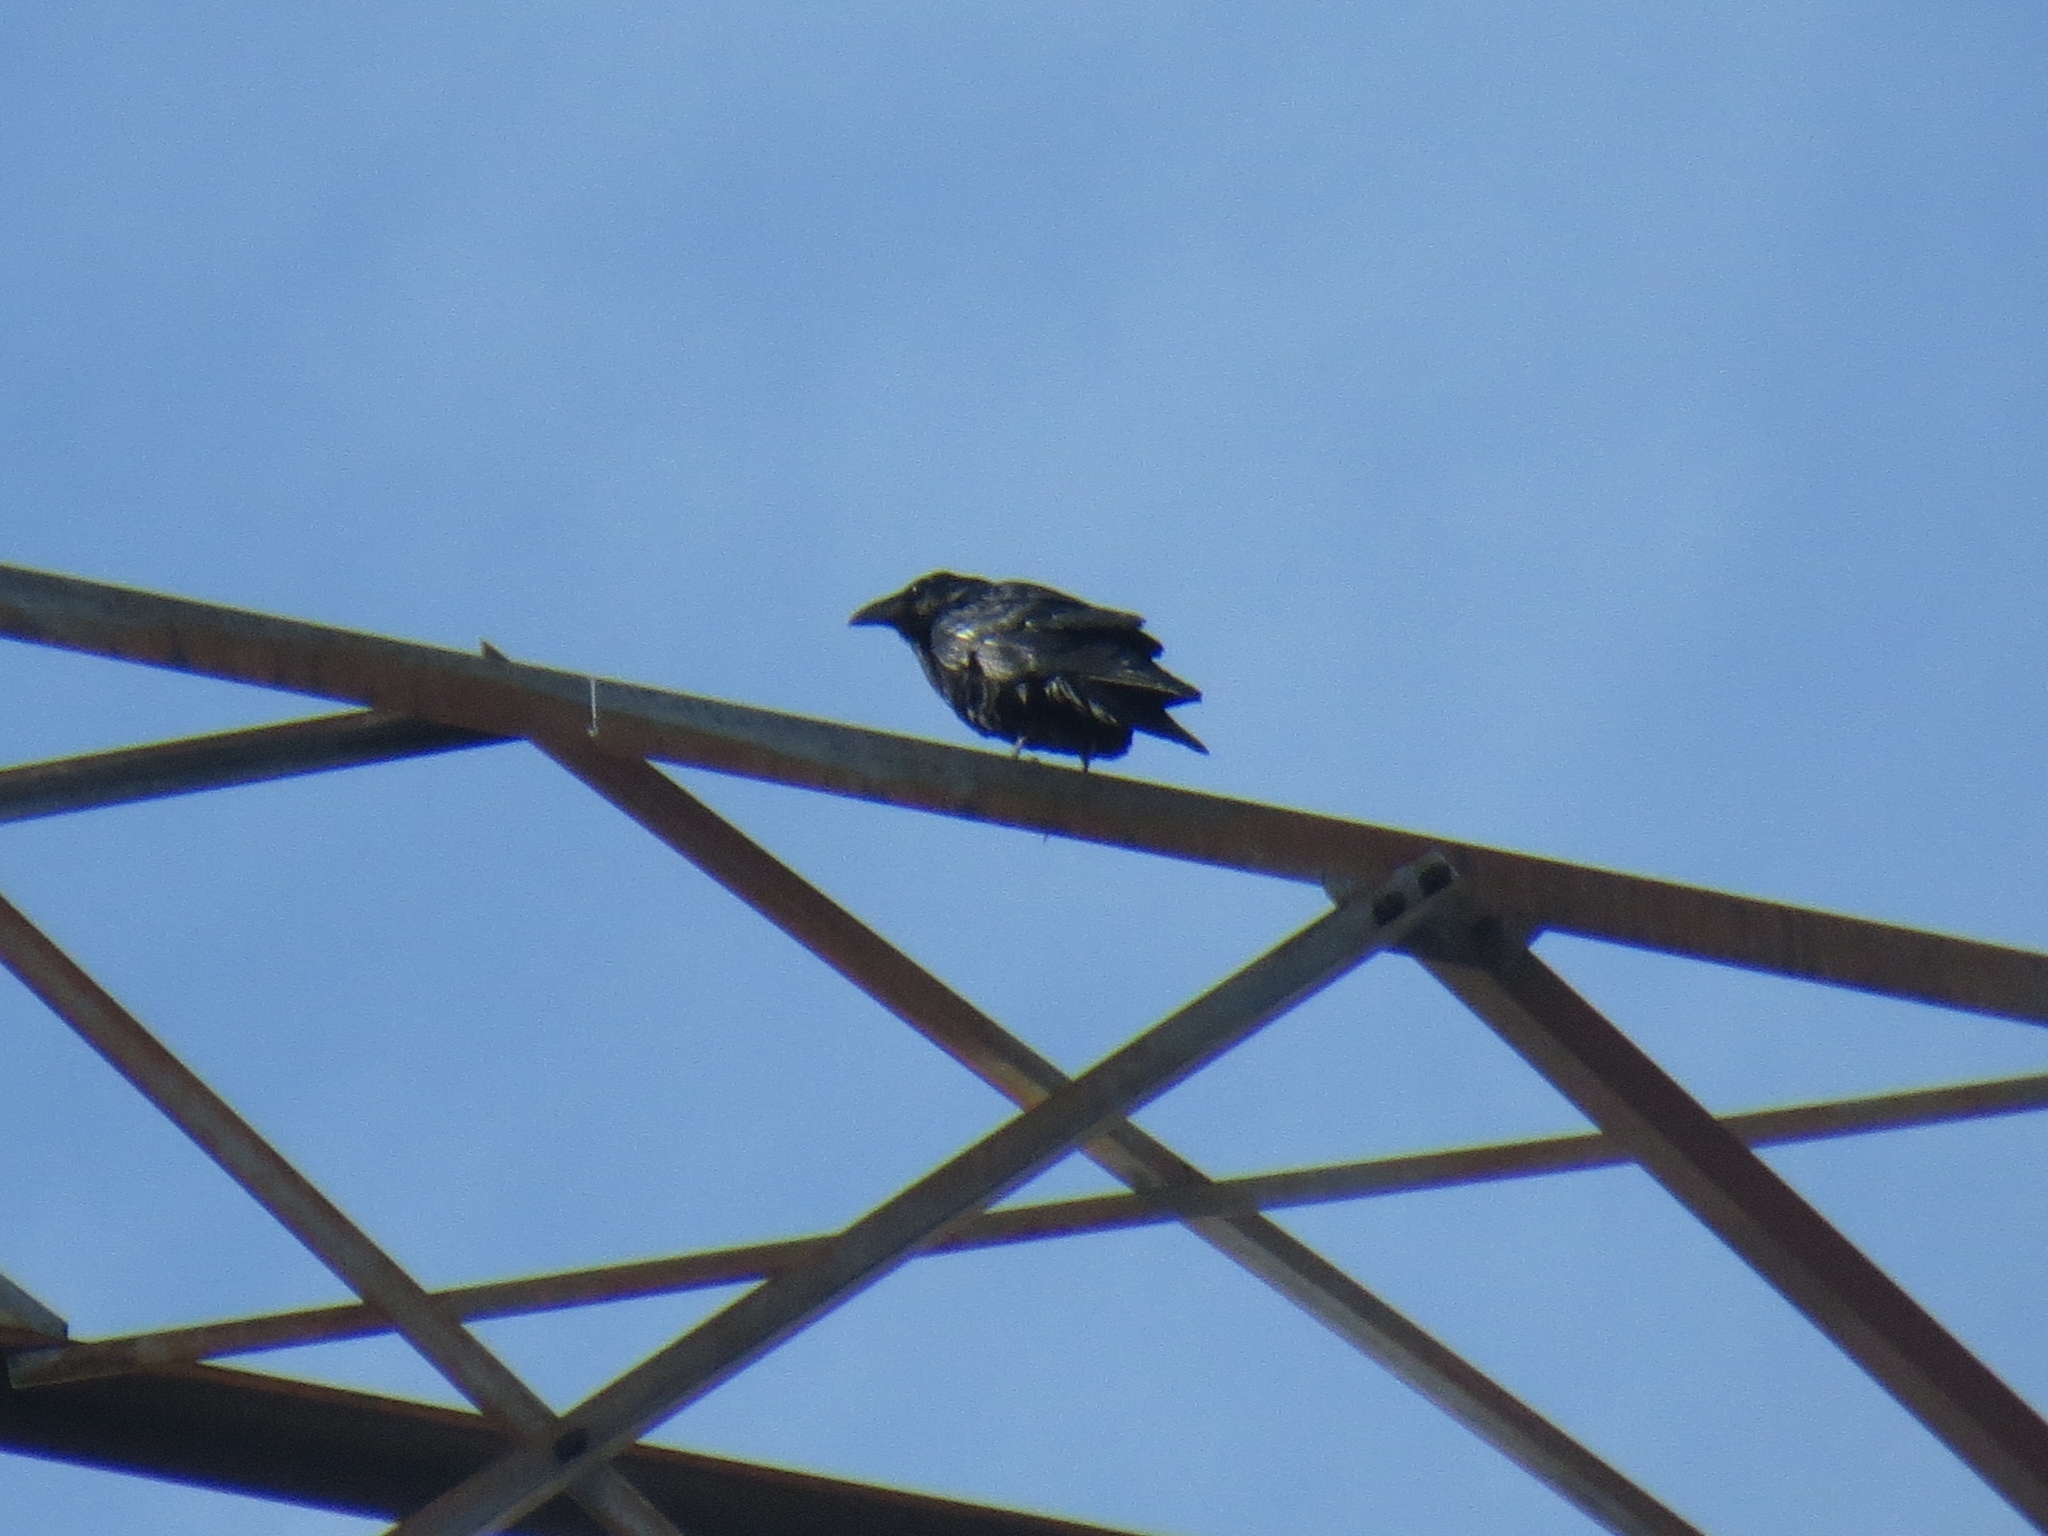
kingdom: Animalia
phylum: Chordata
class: Aves
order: Passeriformes
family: Corvidae
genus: Corvus
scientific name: Corvus corax
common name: Common raven
